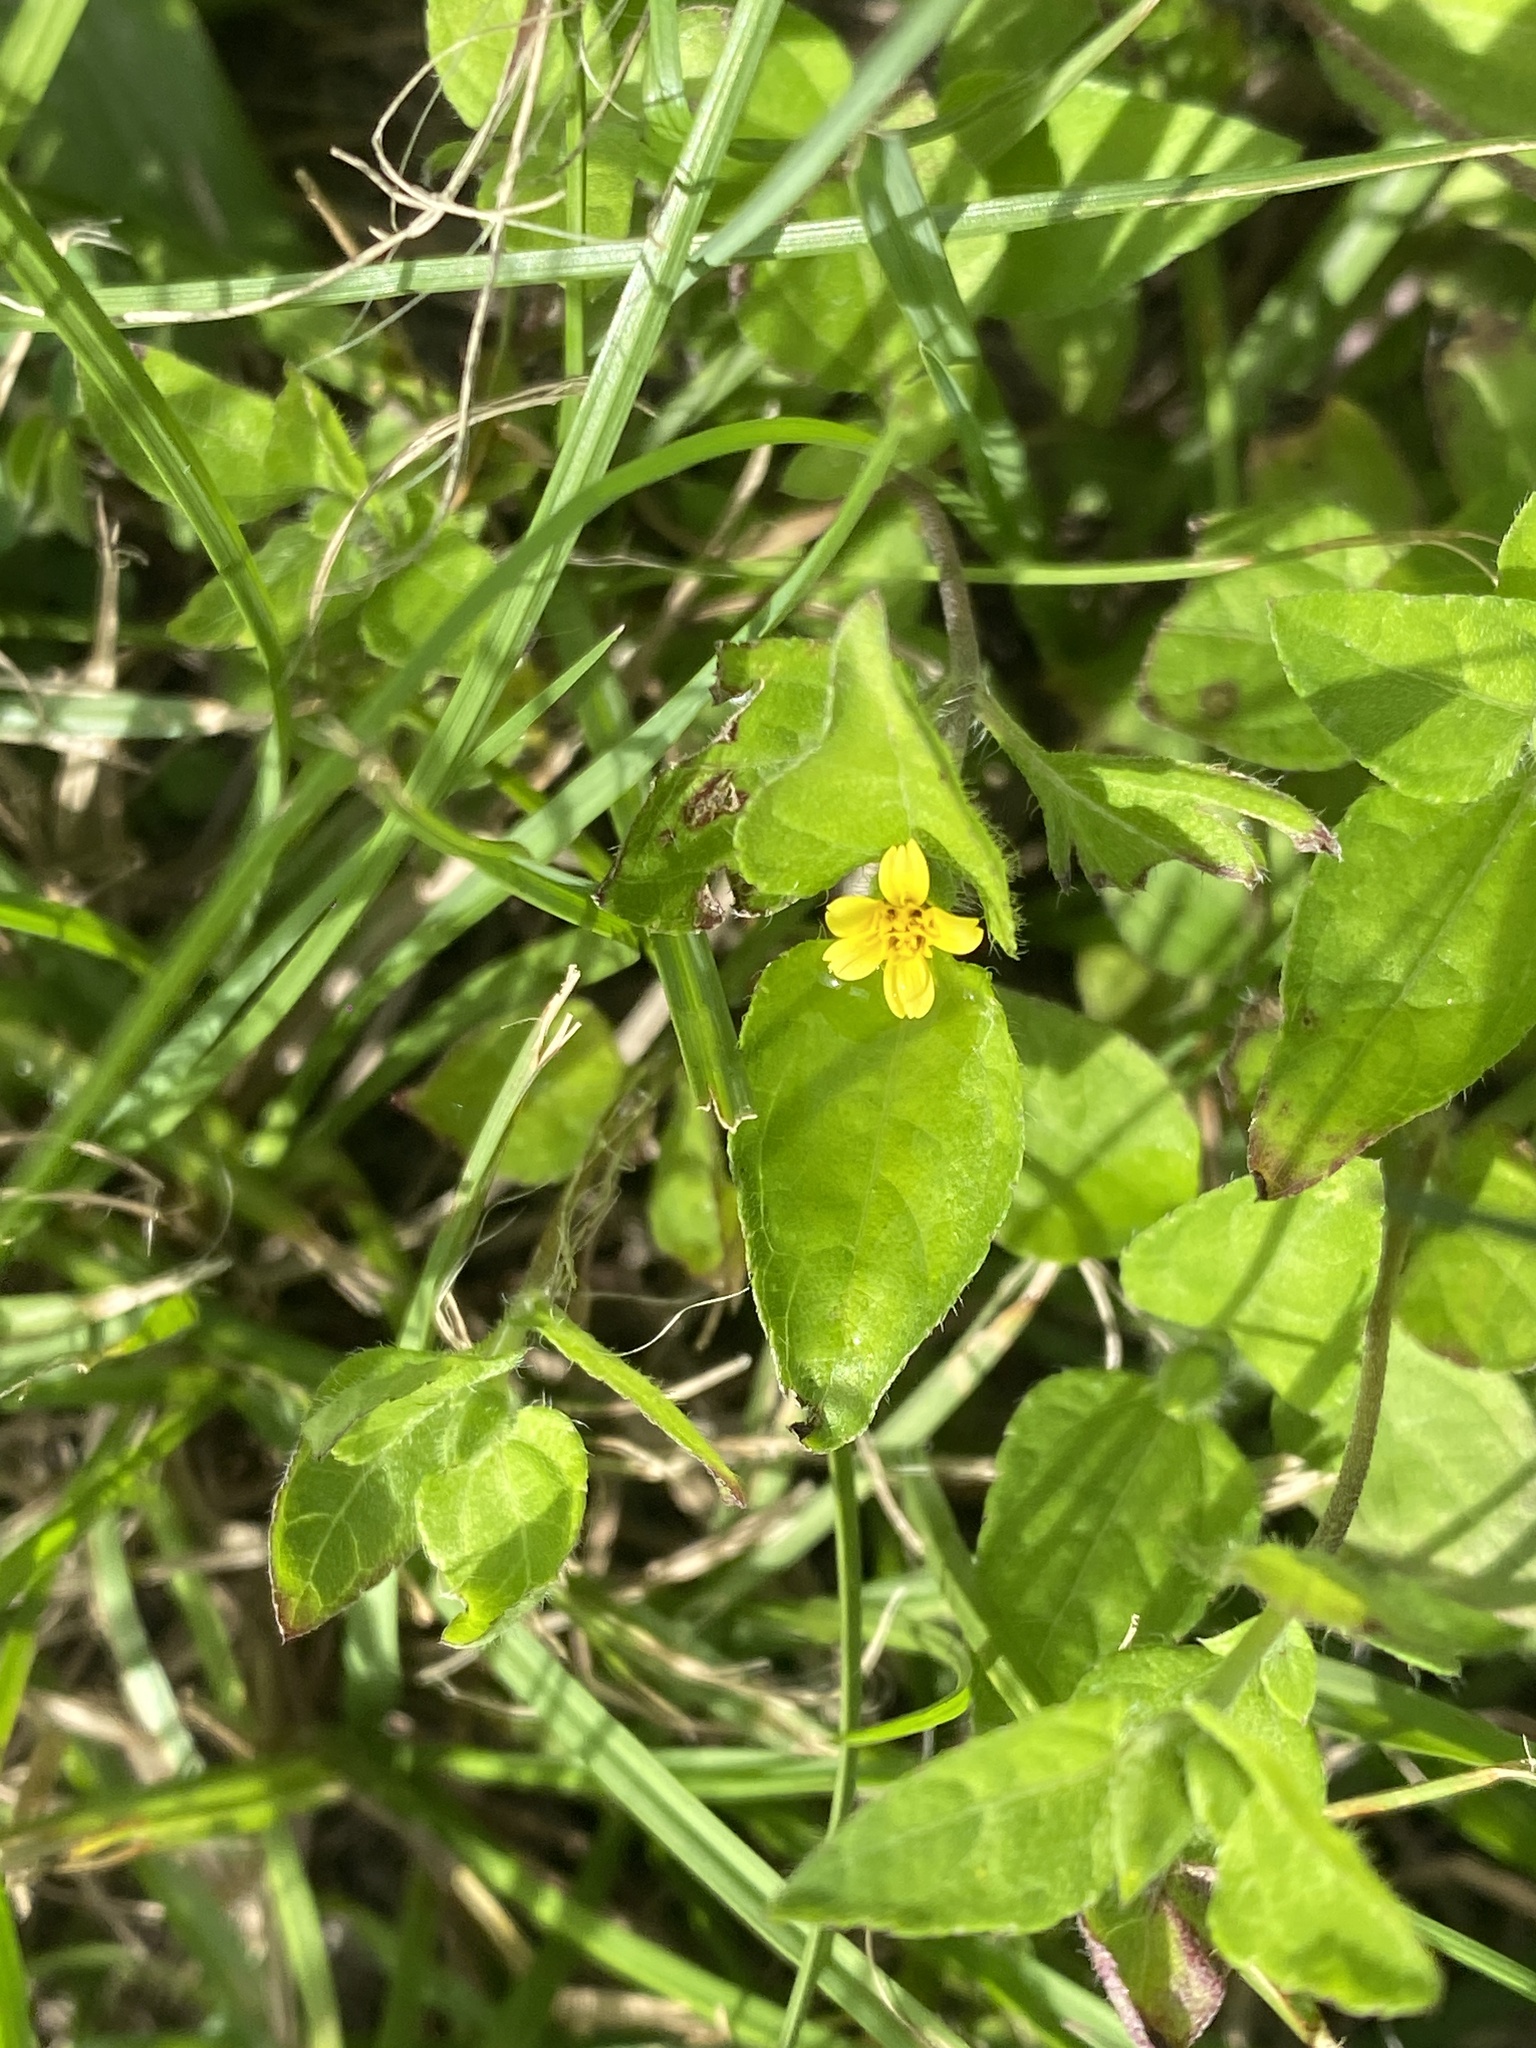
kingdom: Plantae
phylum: Tracheophyta
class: Magnoliopsida
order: Asterales
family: Asteraceae
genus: Calyptocarpus
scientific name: Calyptocarpus vialis
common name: Straggler daisy
